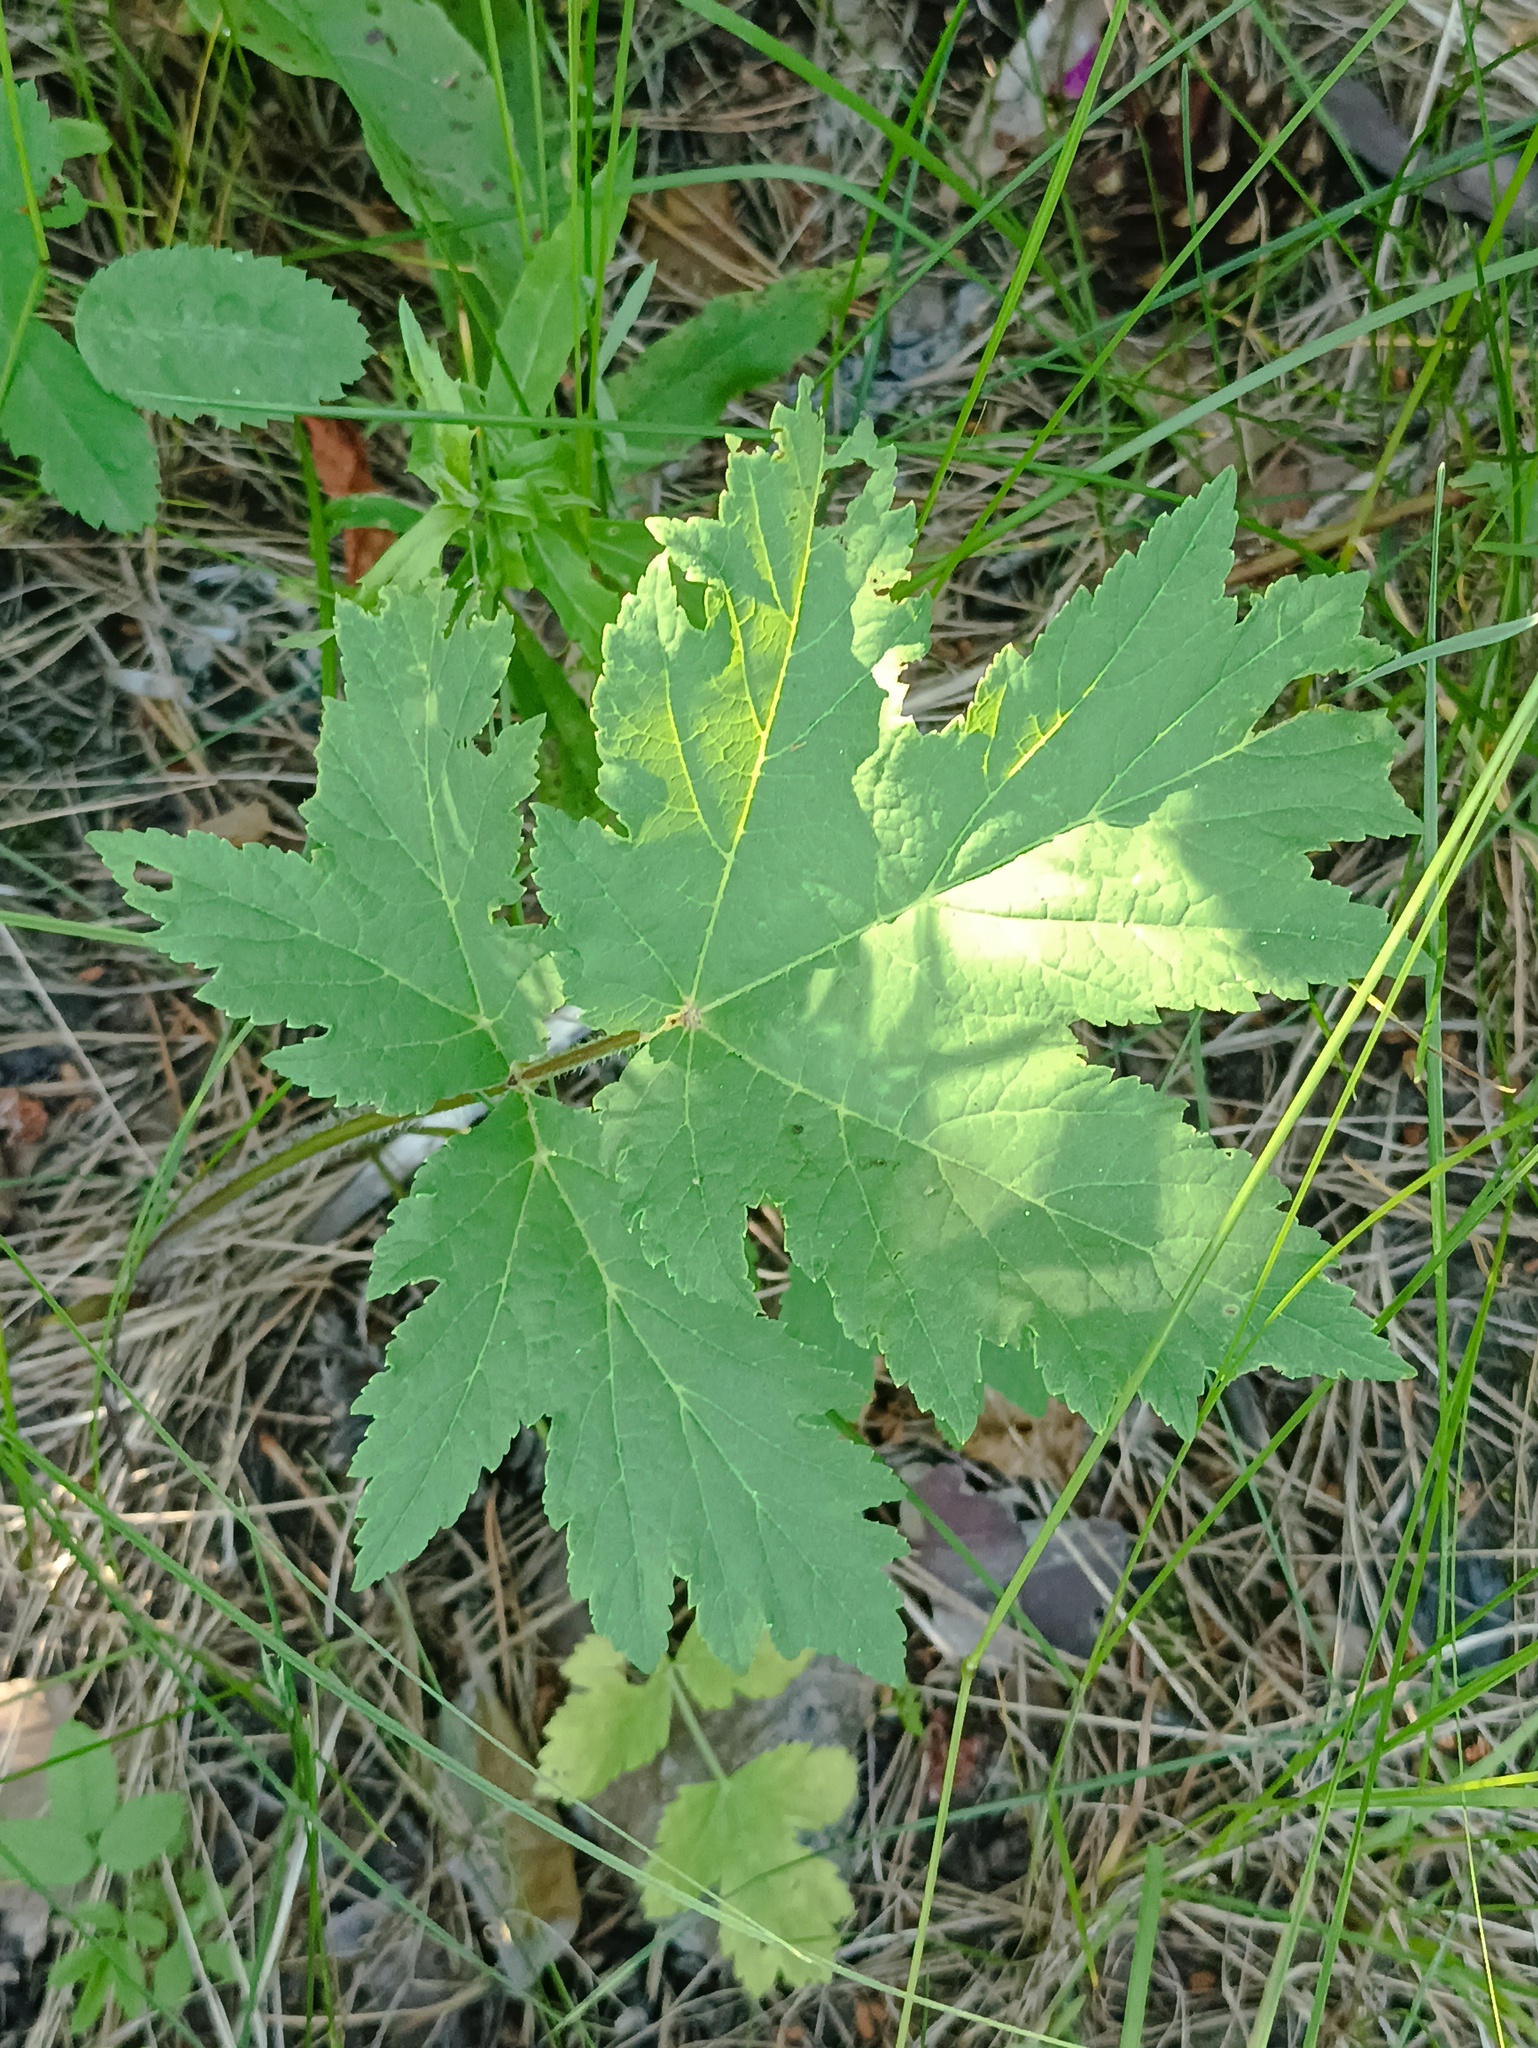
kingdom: Plantae
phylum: Tracheophyta
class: Magnoliopsida
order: Apiales
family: Apiaceae
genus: Heracleum
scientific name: Heracleum sphondylium
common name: Hogweed
